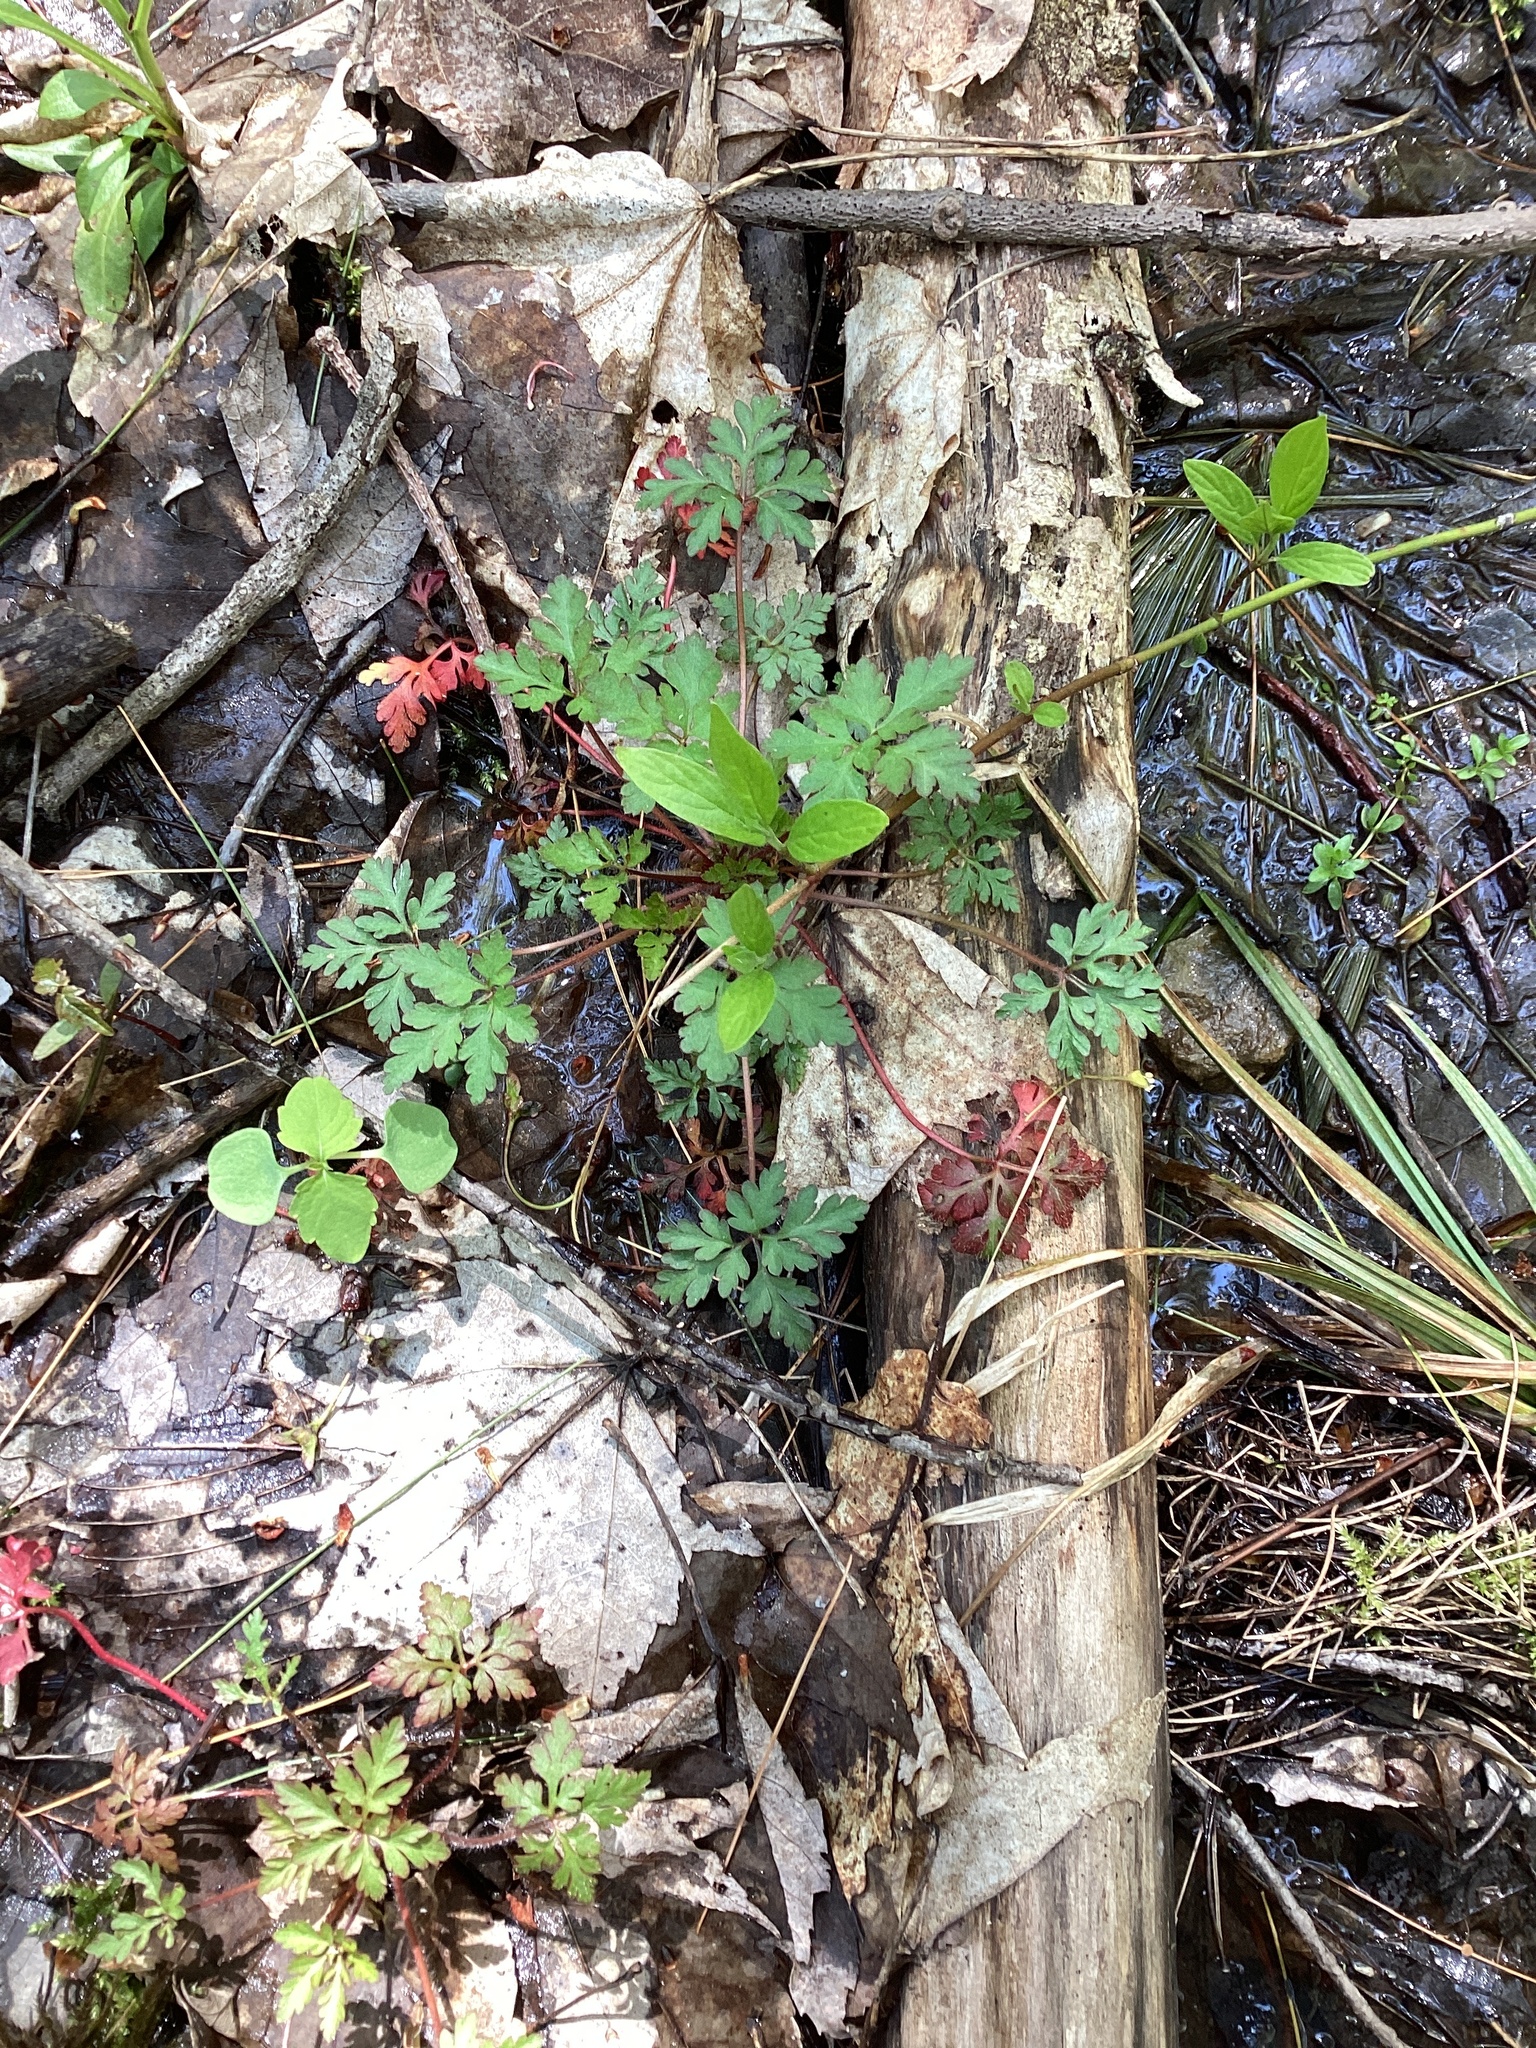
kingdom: Plantae
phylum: Tracheophyta
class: Magnoliopsida
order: Geraniales
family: Geraniaceae
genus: Geranium
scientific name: Geranium robertianum
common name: Herb-robert
